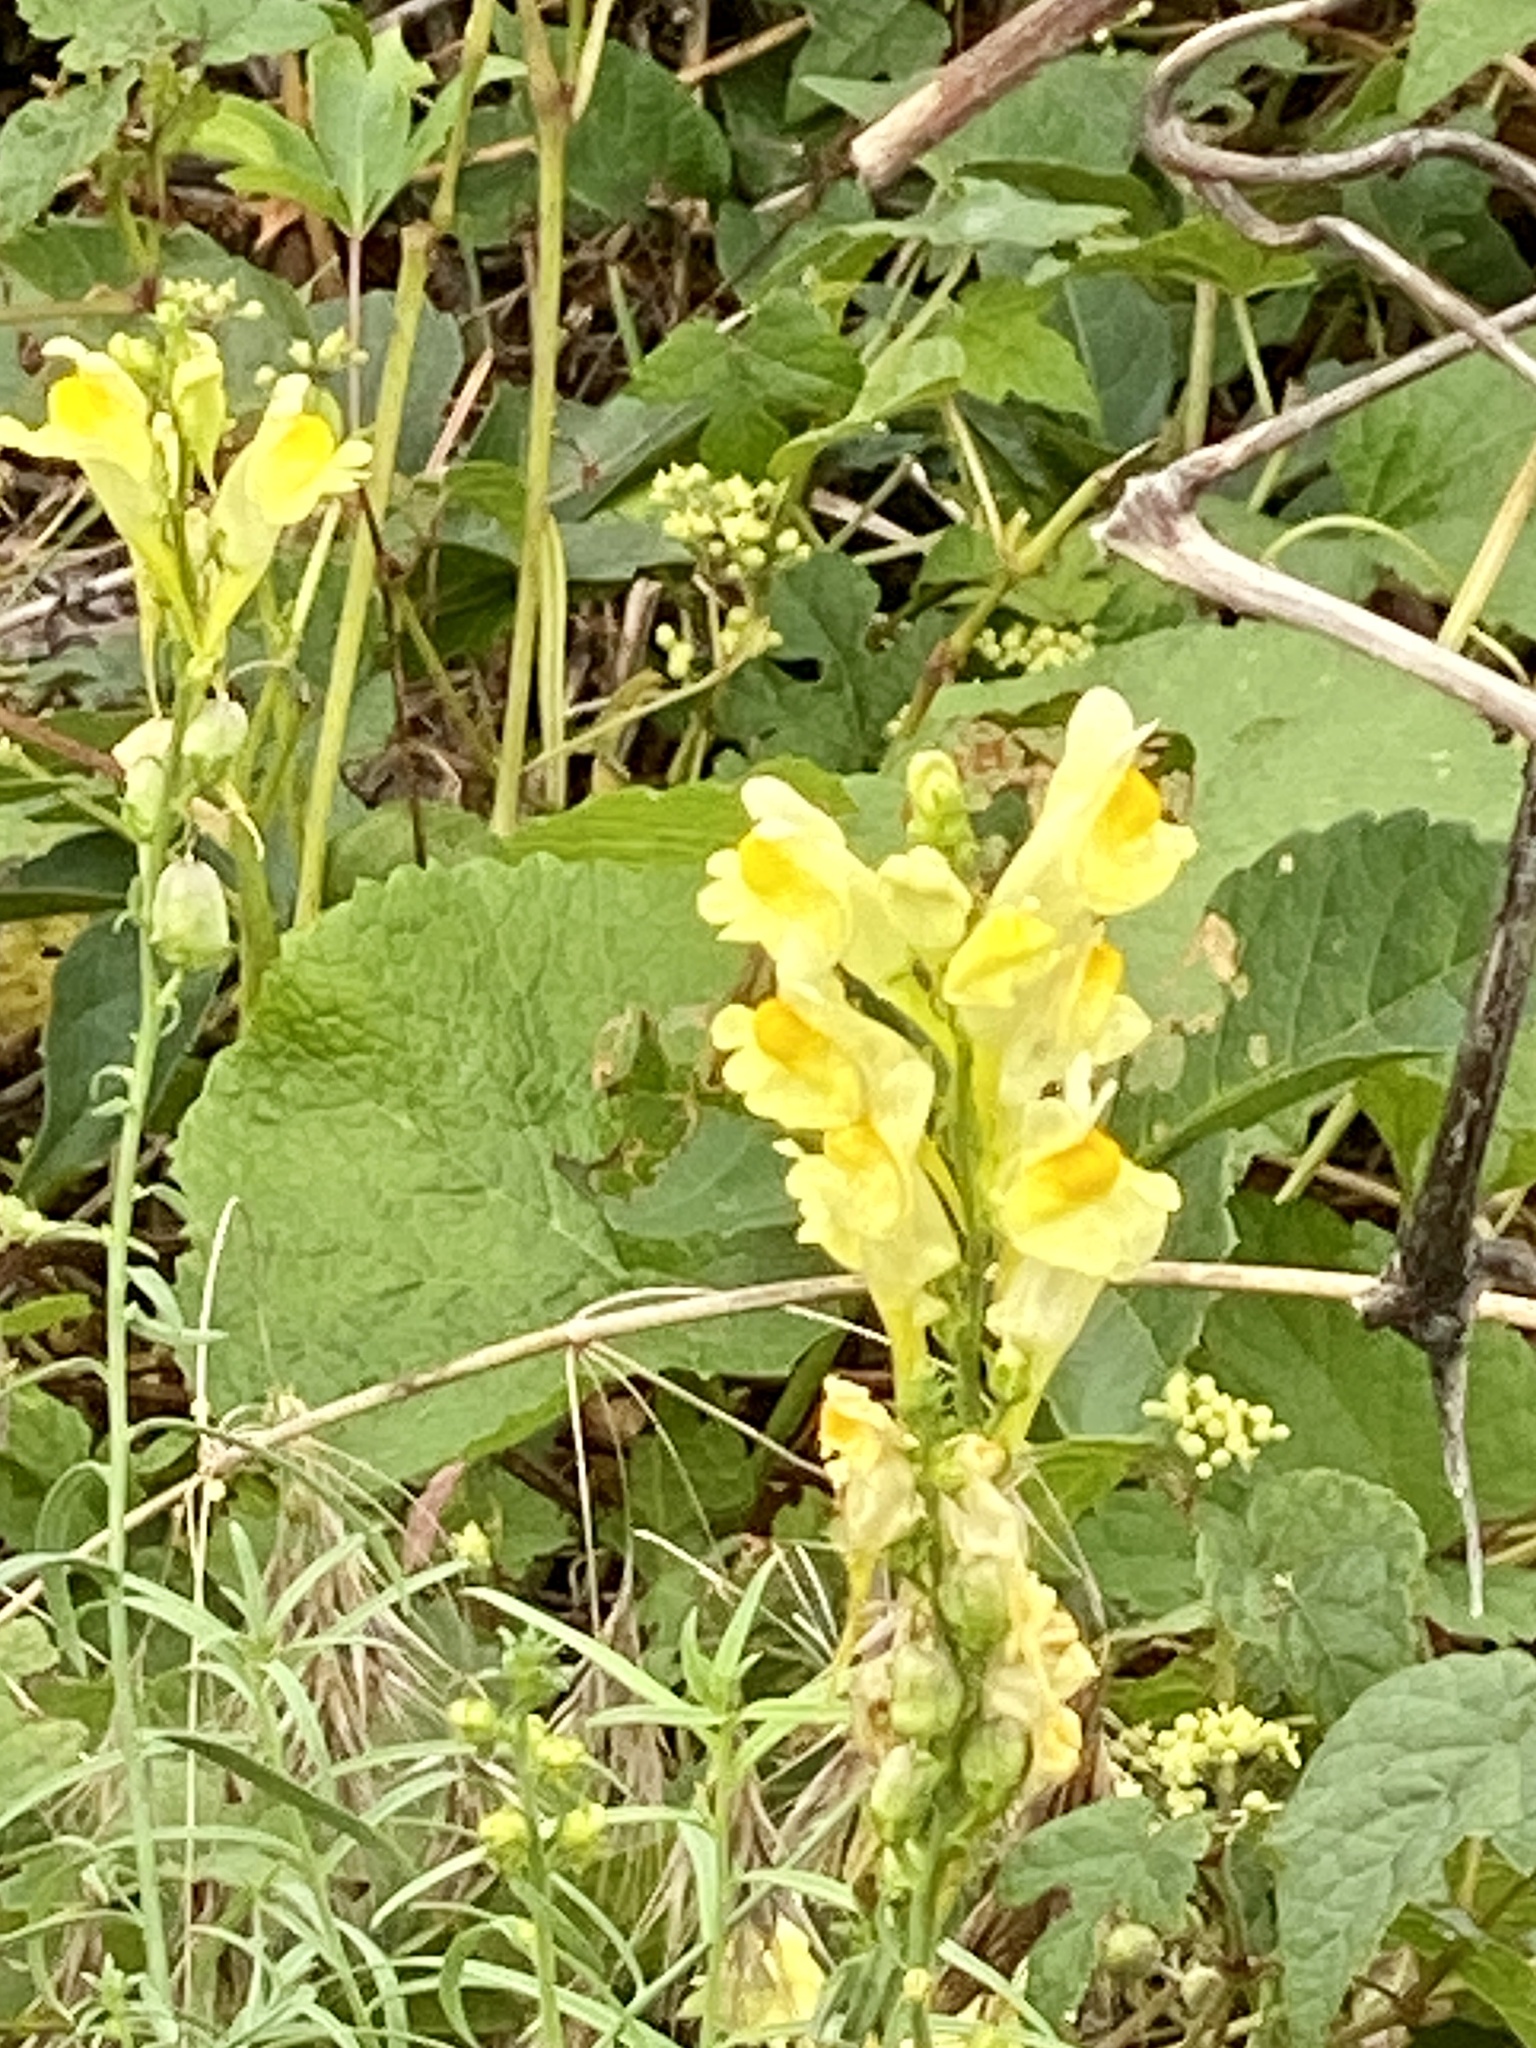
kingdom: Plantae
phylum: Tracheophyta
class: Magnoliopsida
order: Lamiales
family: Plantaginaceae
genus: Linaria
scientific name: Linaria vulgaris
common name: Butter and eggs
